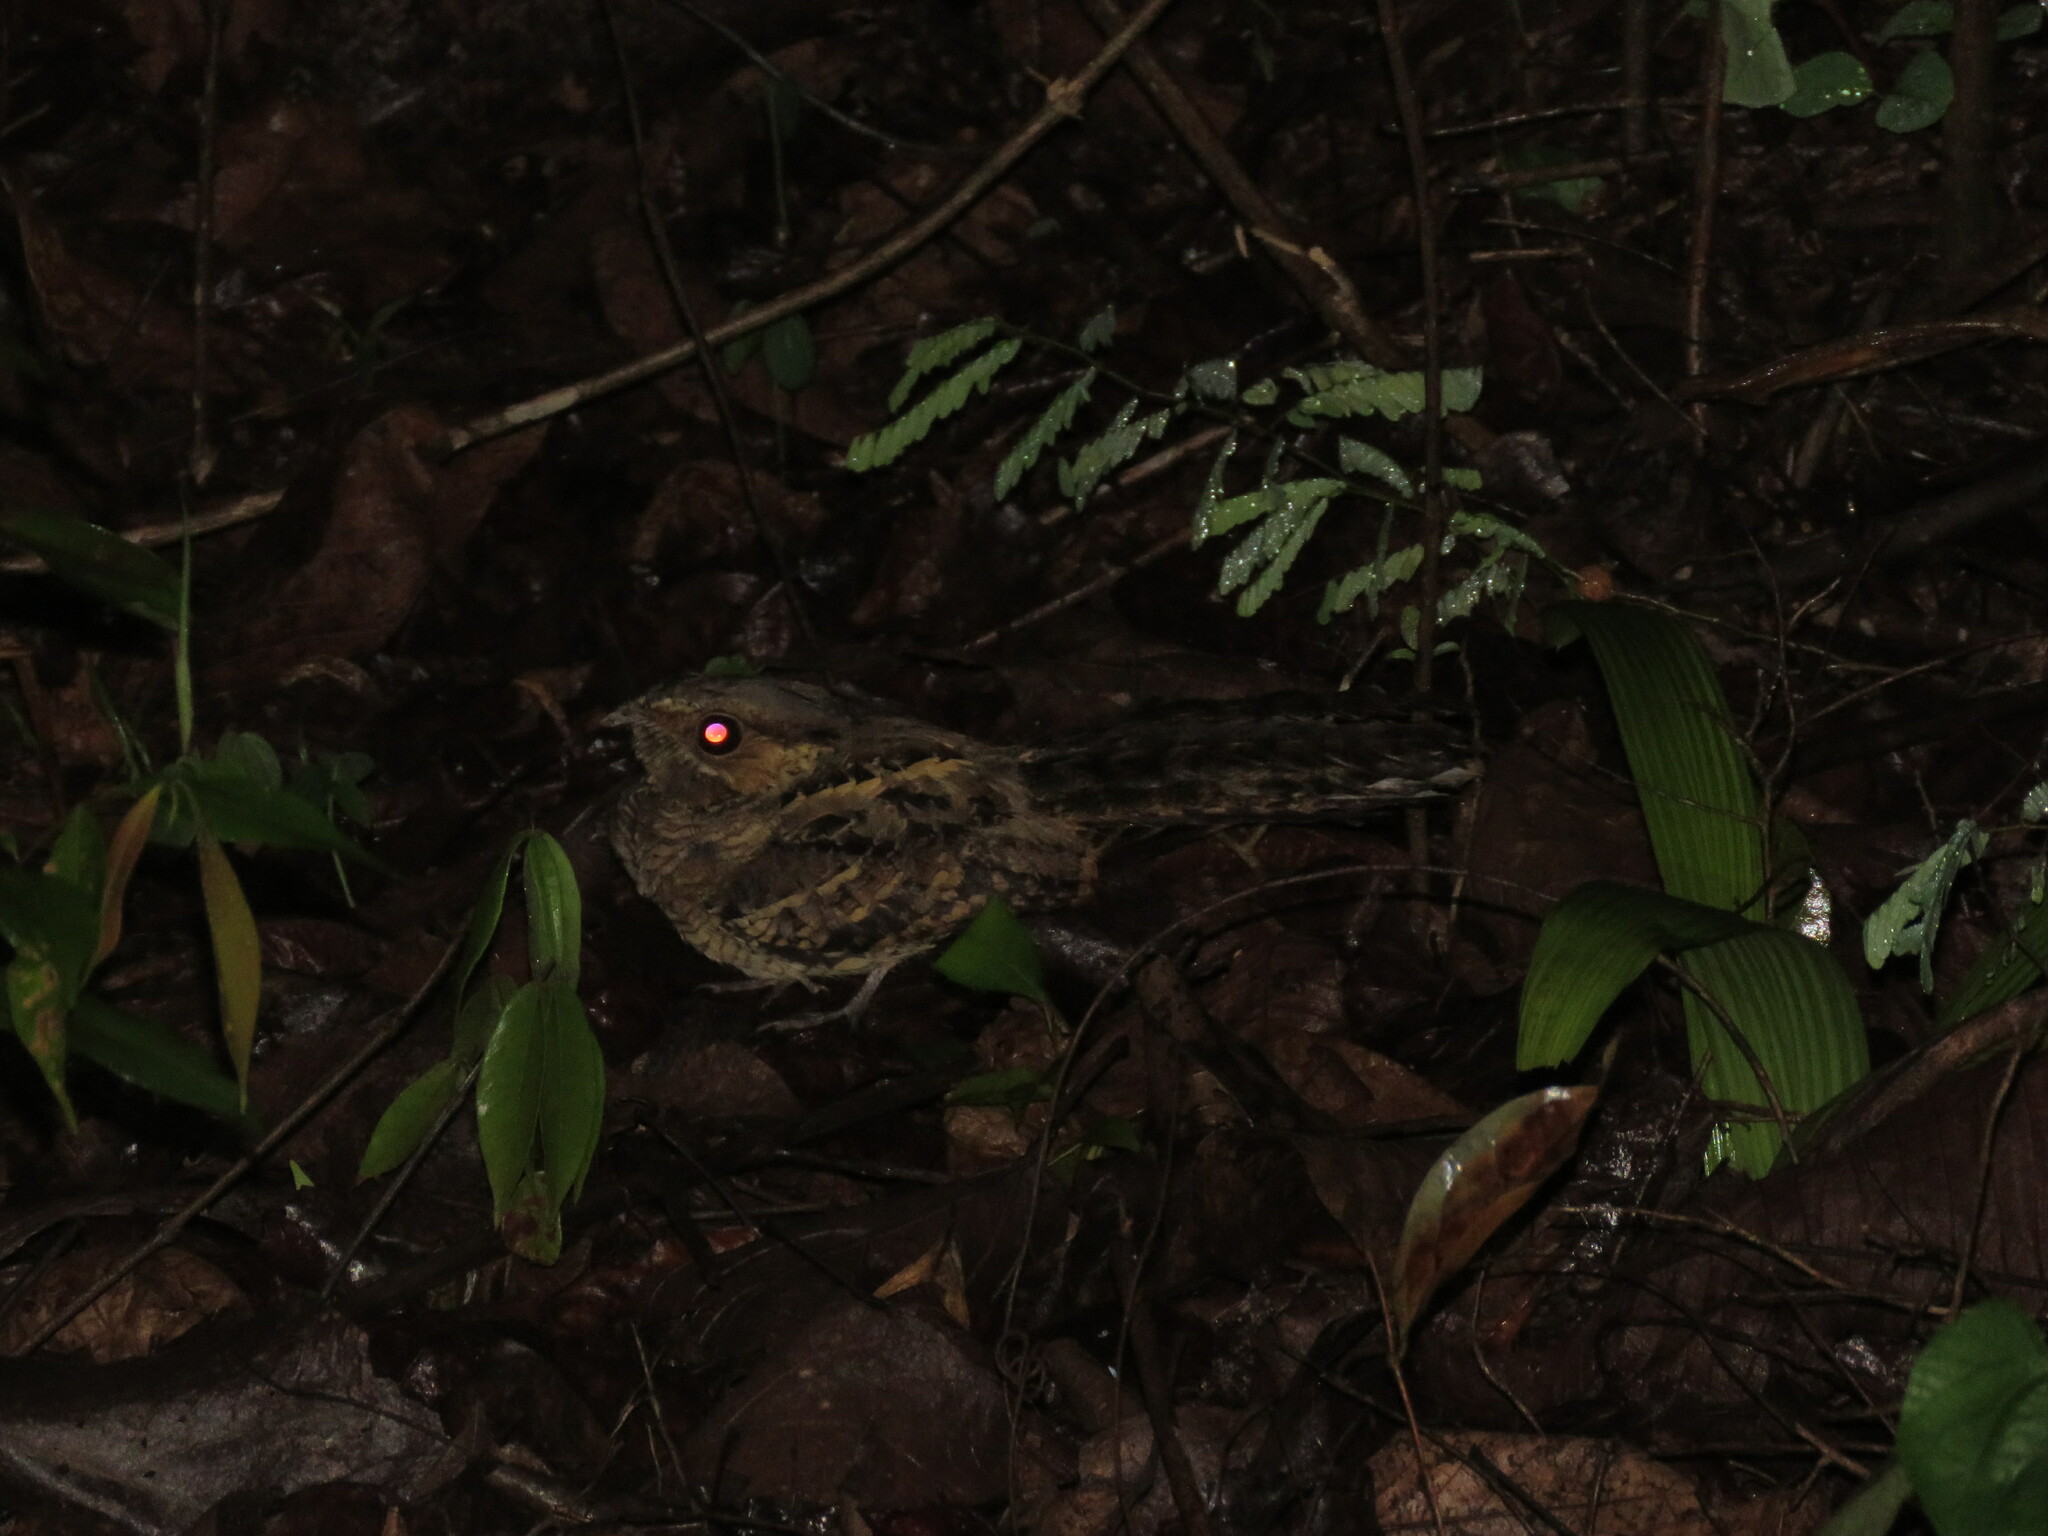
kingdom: Animalia
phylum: Chordata
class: Aves
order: Caprimulgiformes
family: Caprimulgidae
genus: Nyctidromus
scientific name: Nyctidromus albicollis
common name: Pauraque
